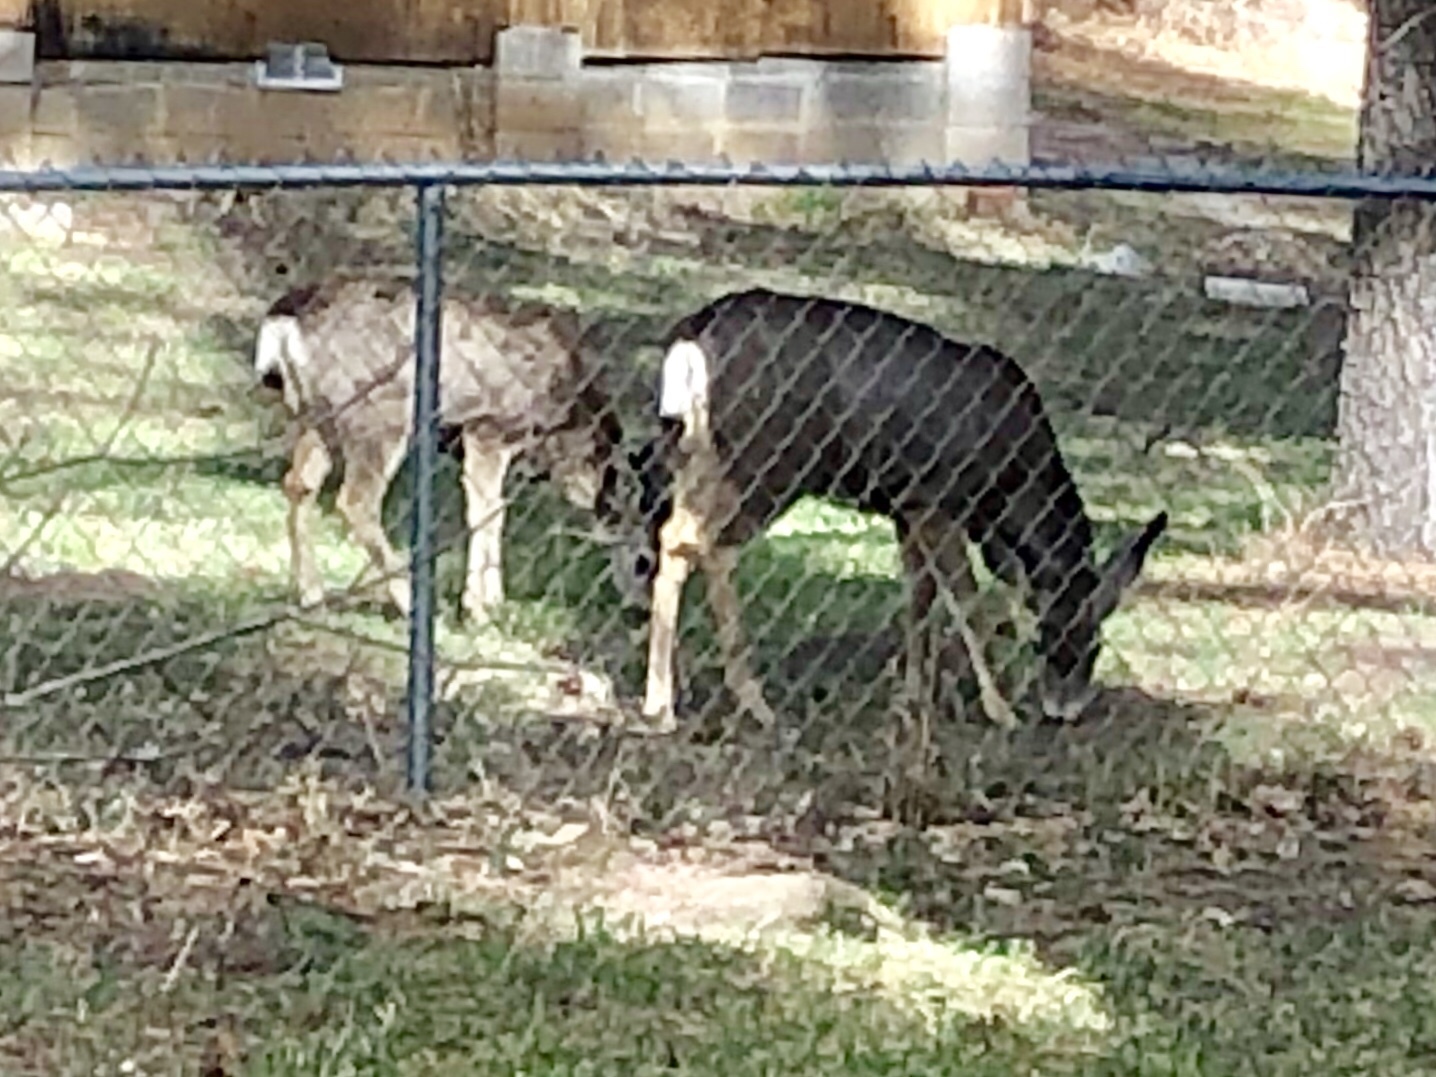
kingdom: Animalia
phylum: Chordata
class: Mammalia
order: Artiodactyla
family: Cervidae
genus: Odocoileus
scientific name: Odocoileus hemionus
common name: Mule deer
